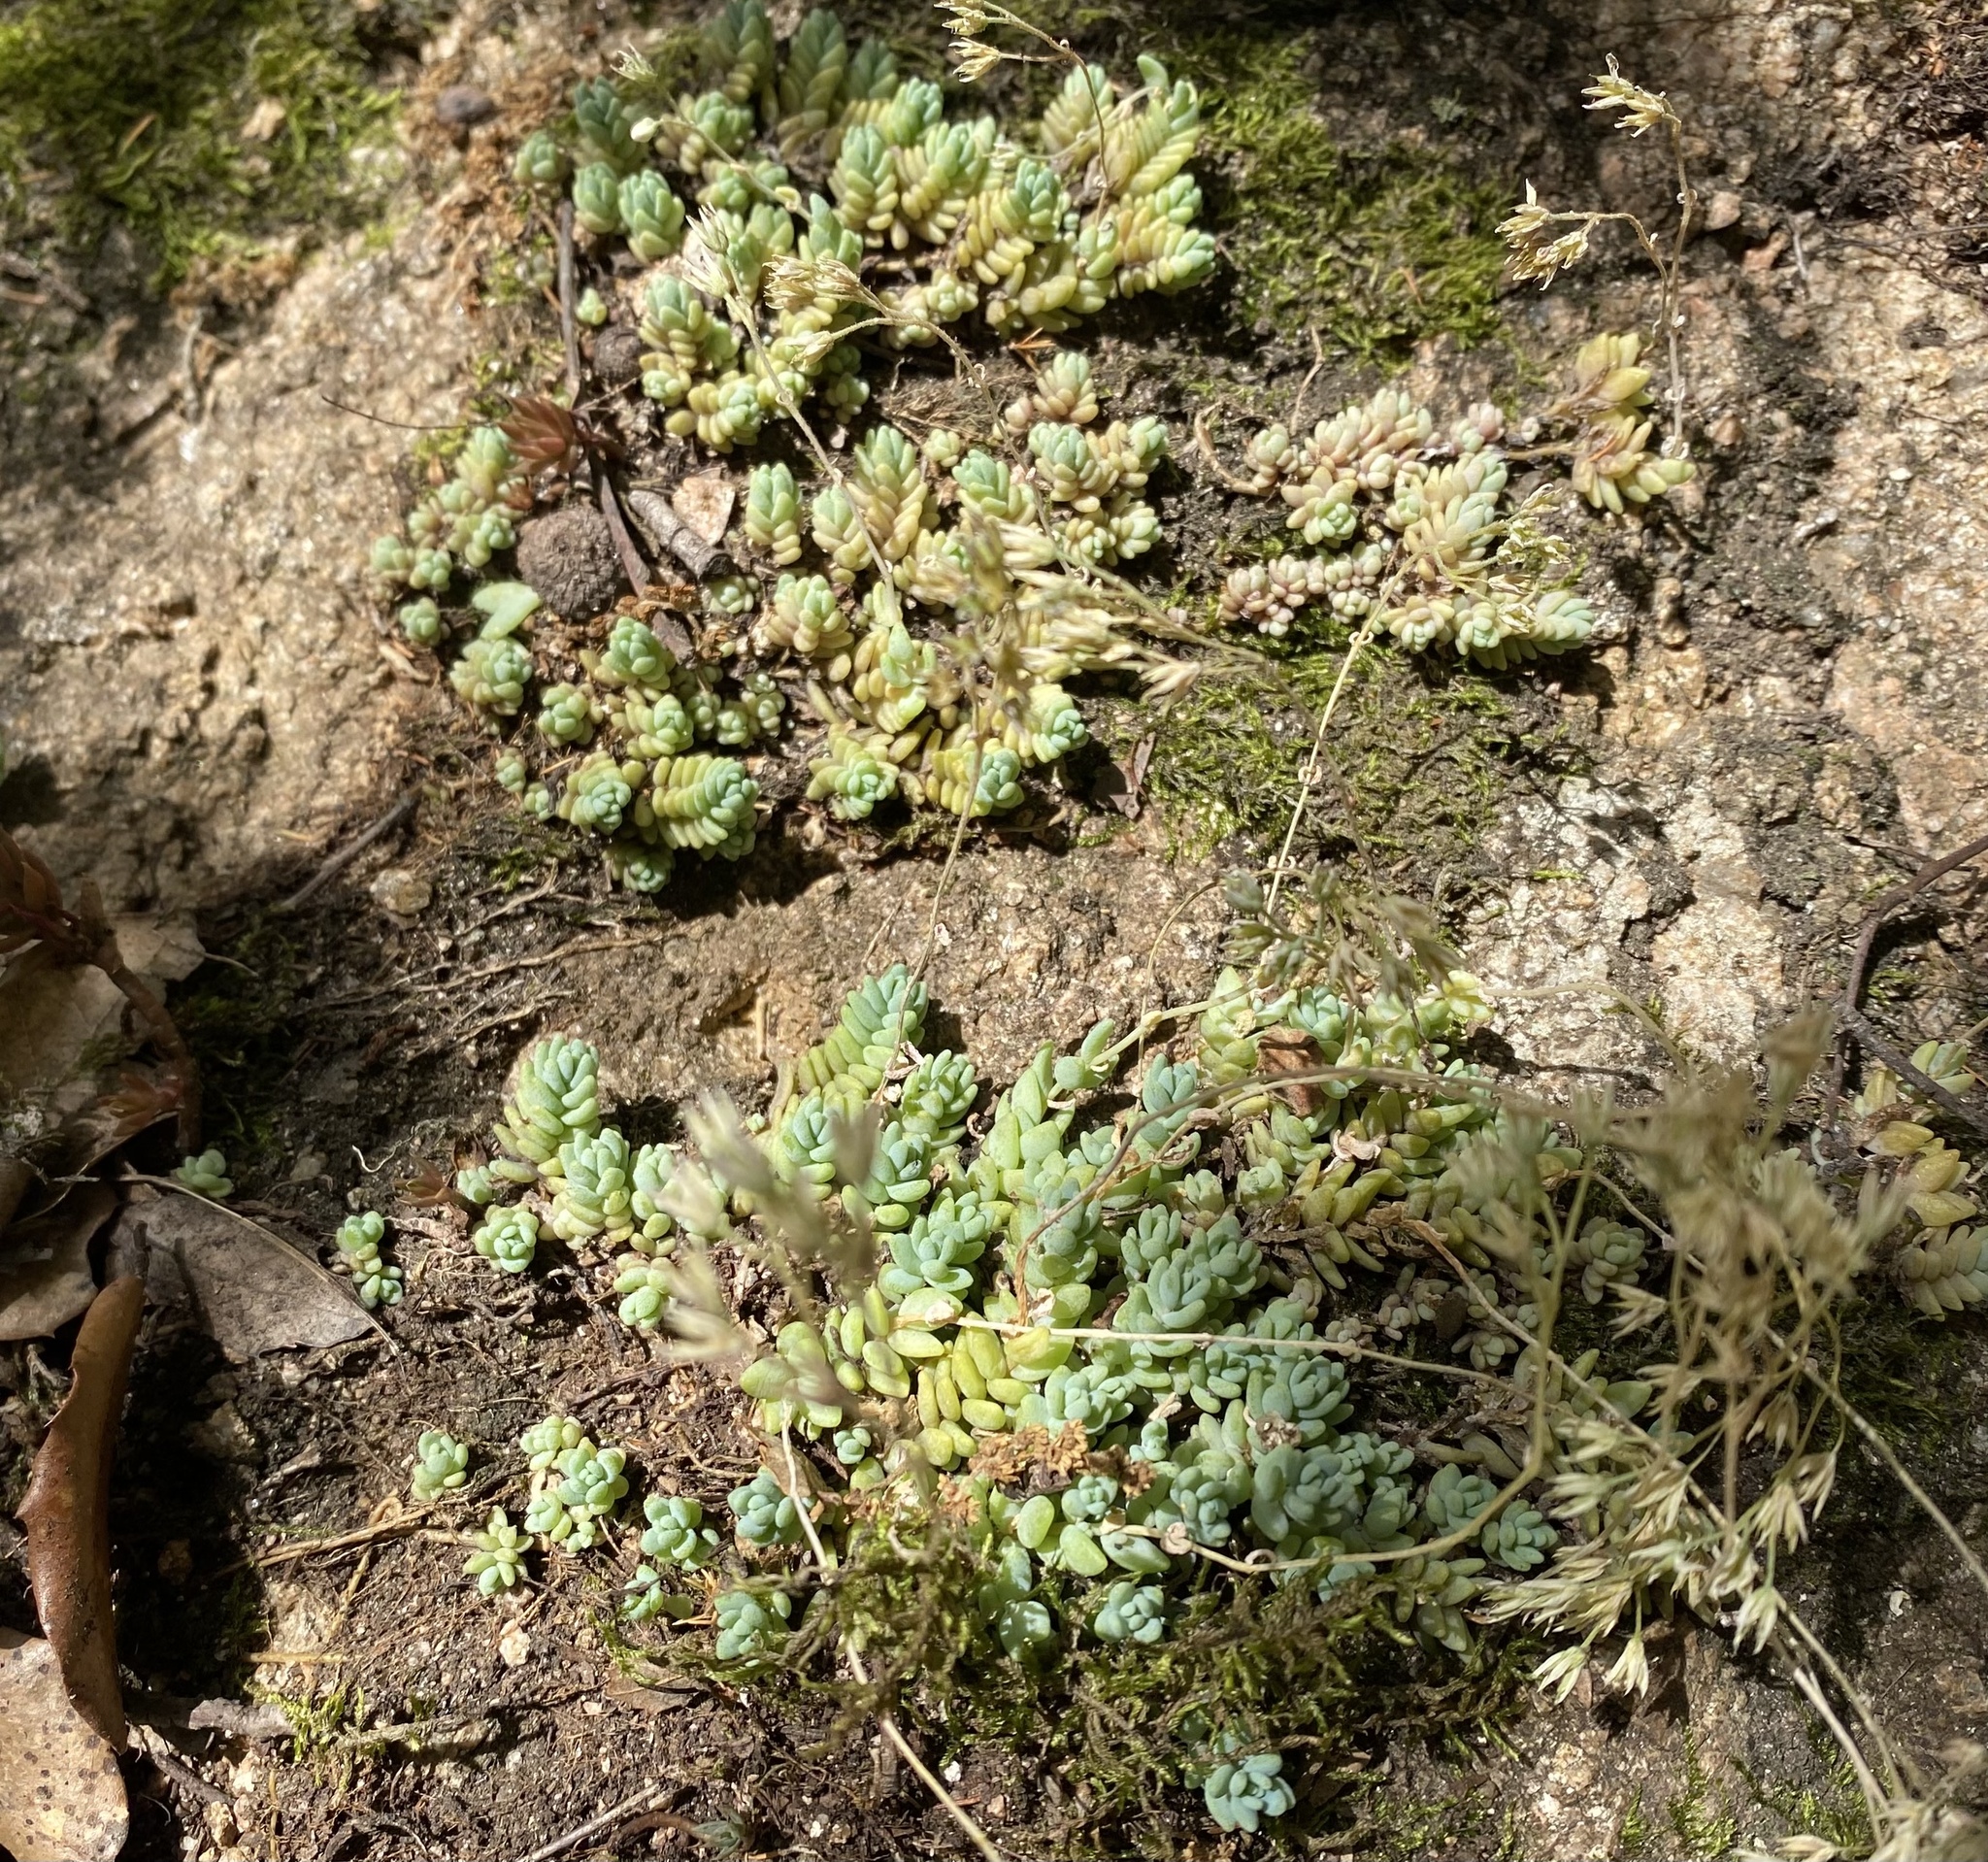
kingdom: Plantae
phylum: Tracheophyta
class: Magnoliopsida
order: Saxifragales
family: Crassulaceae
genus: Sedum
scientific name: Sedum dasyphyllum
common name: Thick-leaf stonecrop
